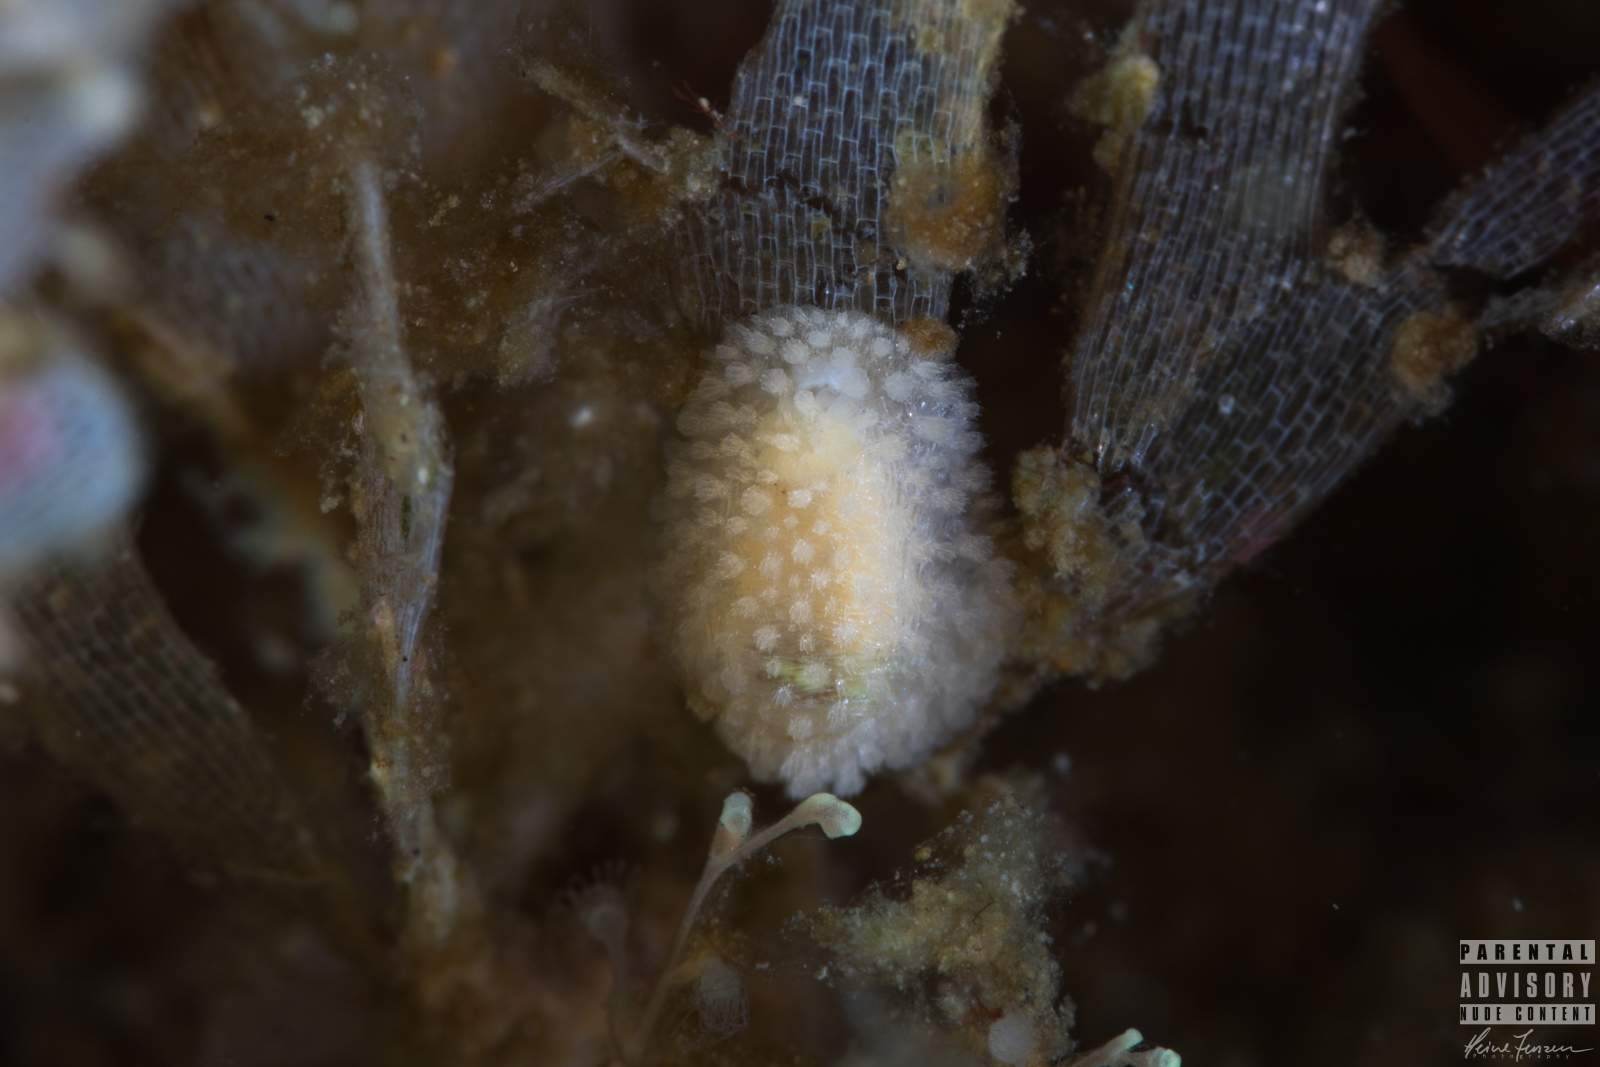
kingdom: Animalia
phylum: Mollusca
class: Gastropoda
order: Nudibranchia
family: Onchidorididae
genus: Onchidoris
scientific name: Onchidoris muricata
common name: Rough doris
